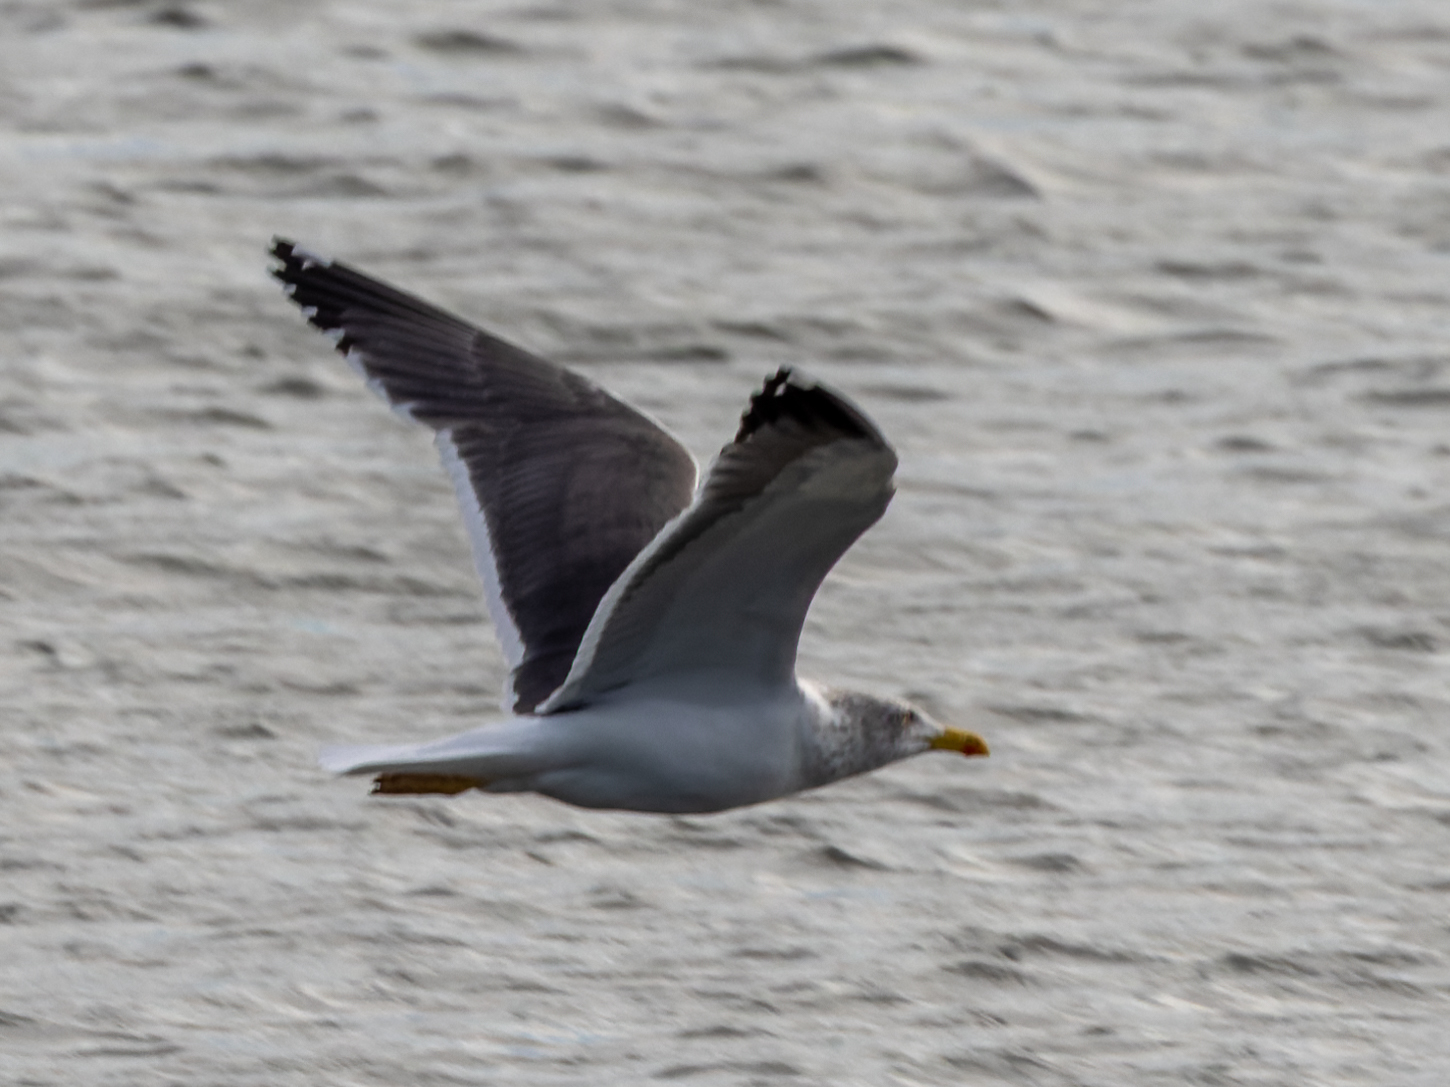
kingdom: Animalia
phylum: Chordata
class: Aves
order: Charadriiformes
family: Laridae
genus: Larus
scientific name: Larus fuscus
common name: Lesser black-backed gull
